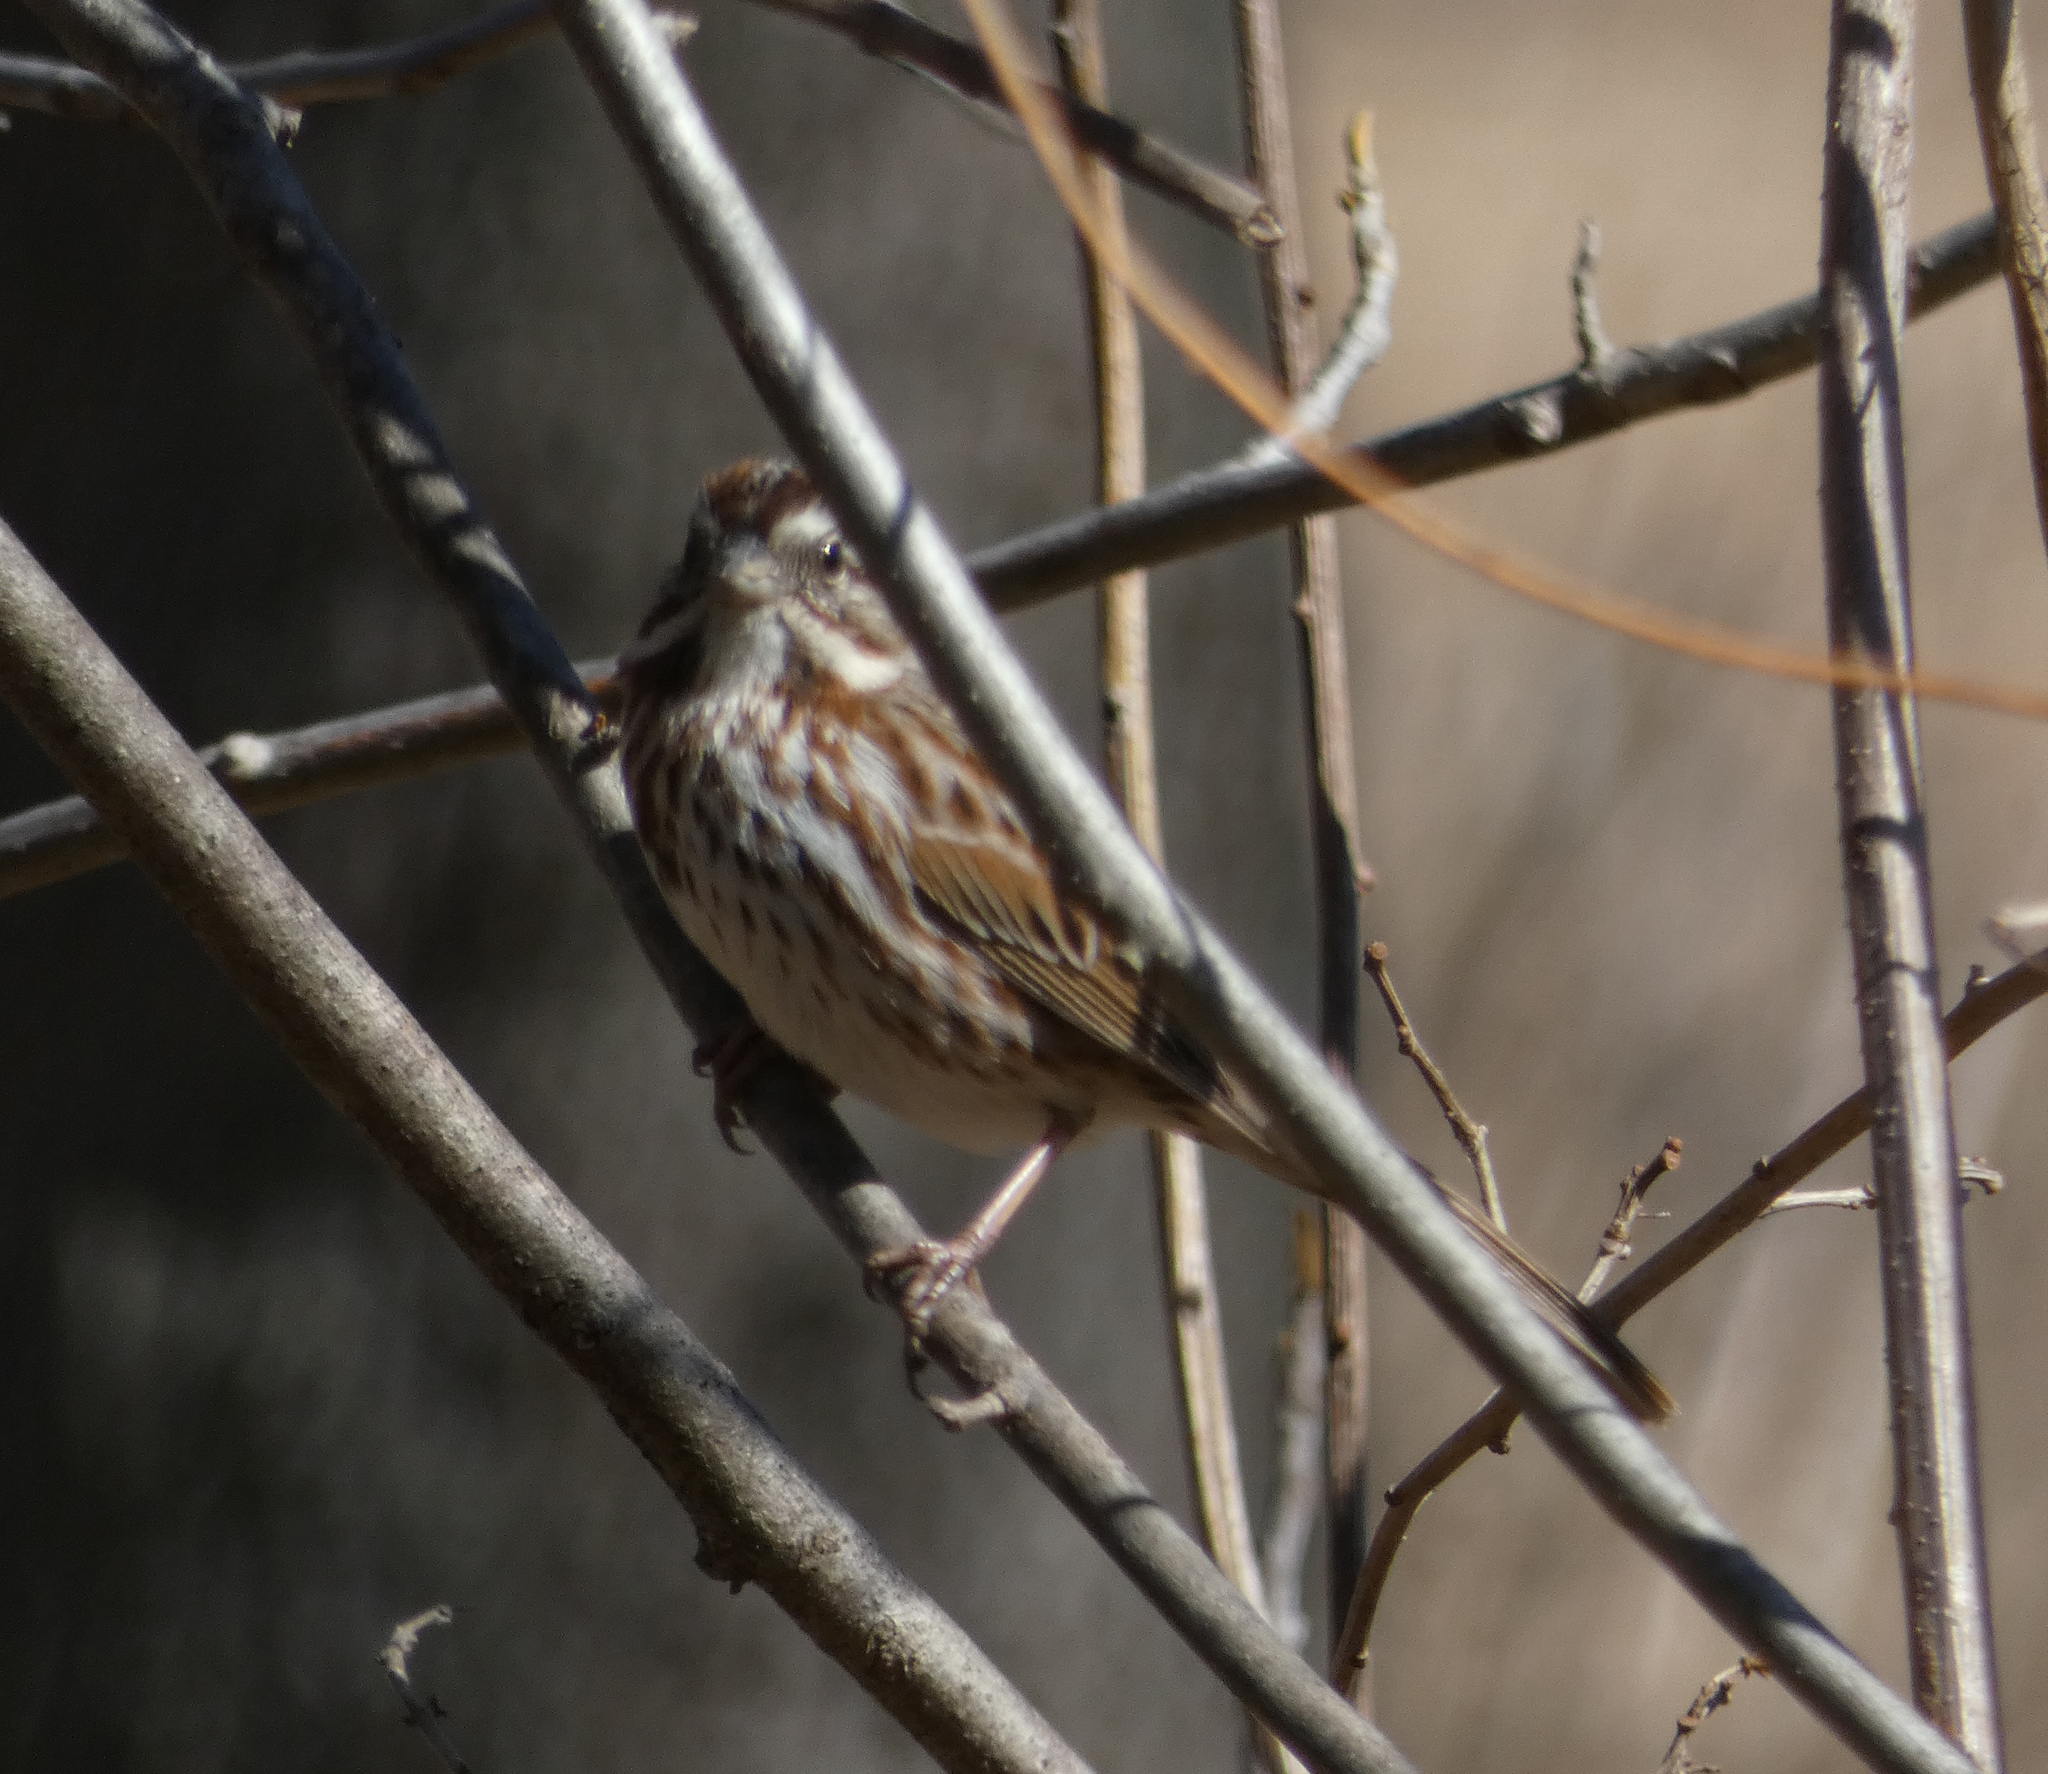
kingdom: Animalia
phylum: Chordata
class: Aves
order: Passeriformes
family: Passerellidae
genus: Melospiza
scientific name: Melospiza melodia
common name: Song sparrow
